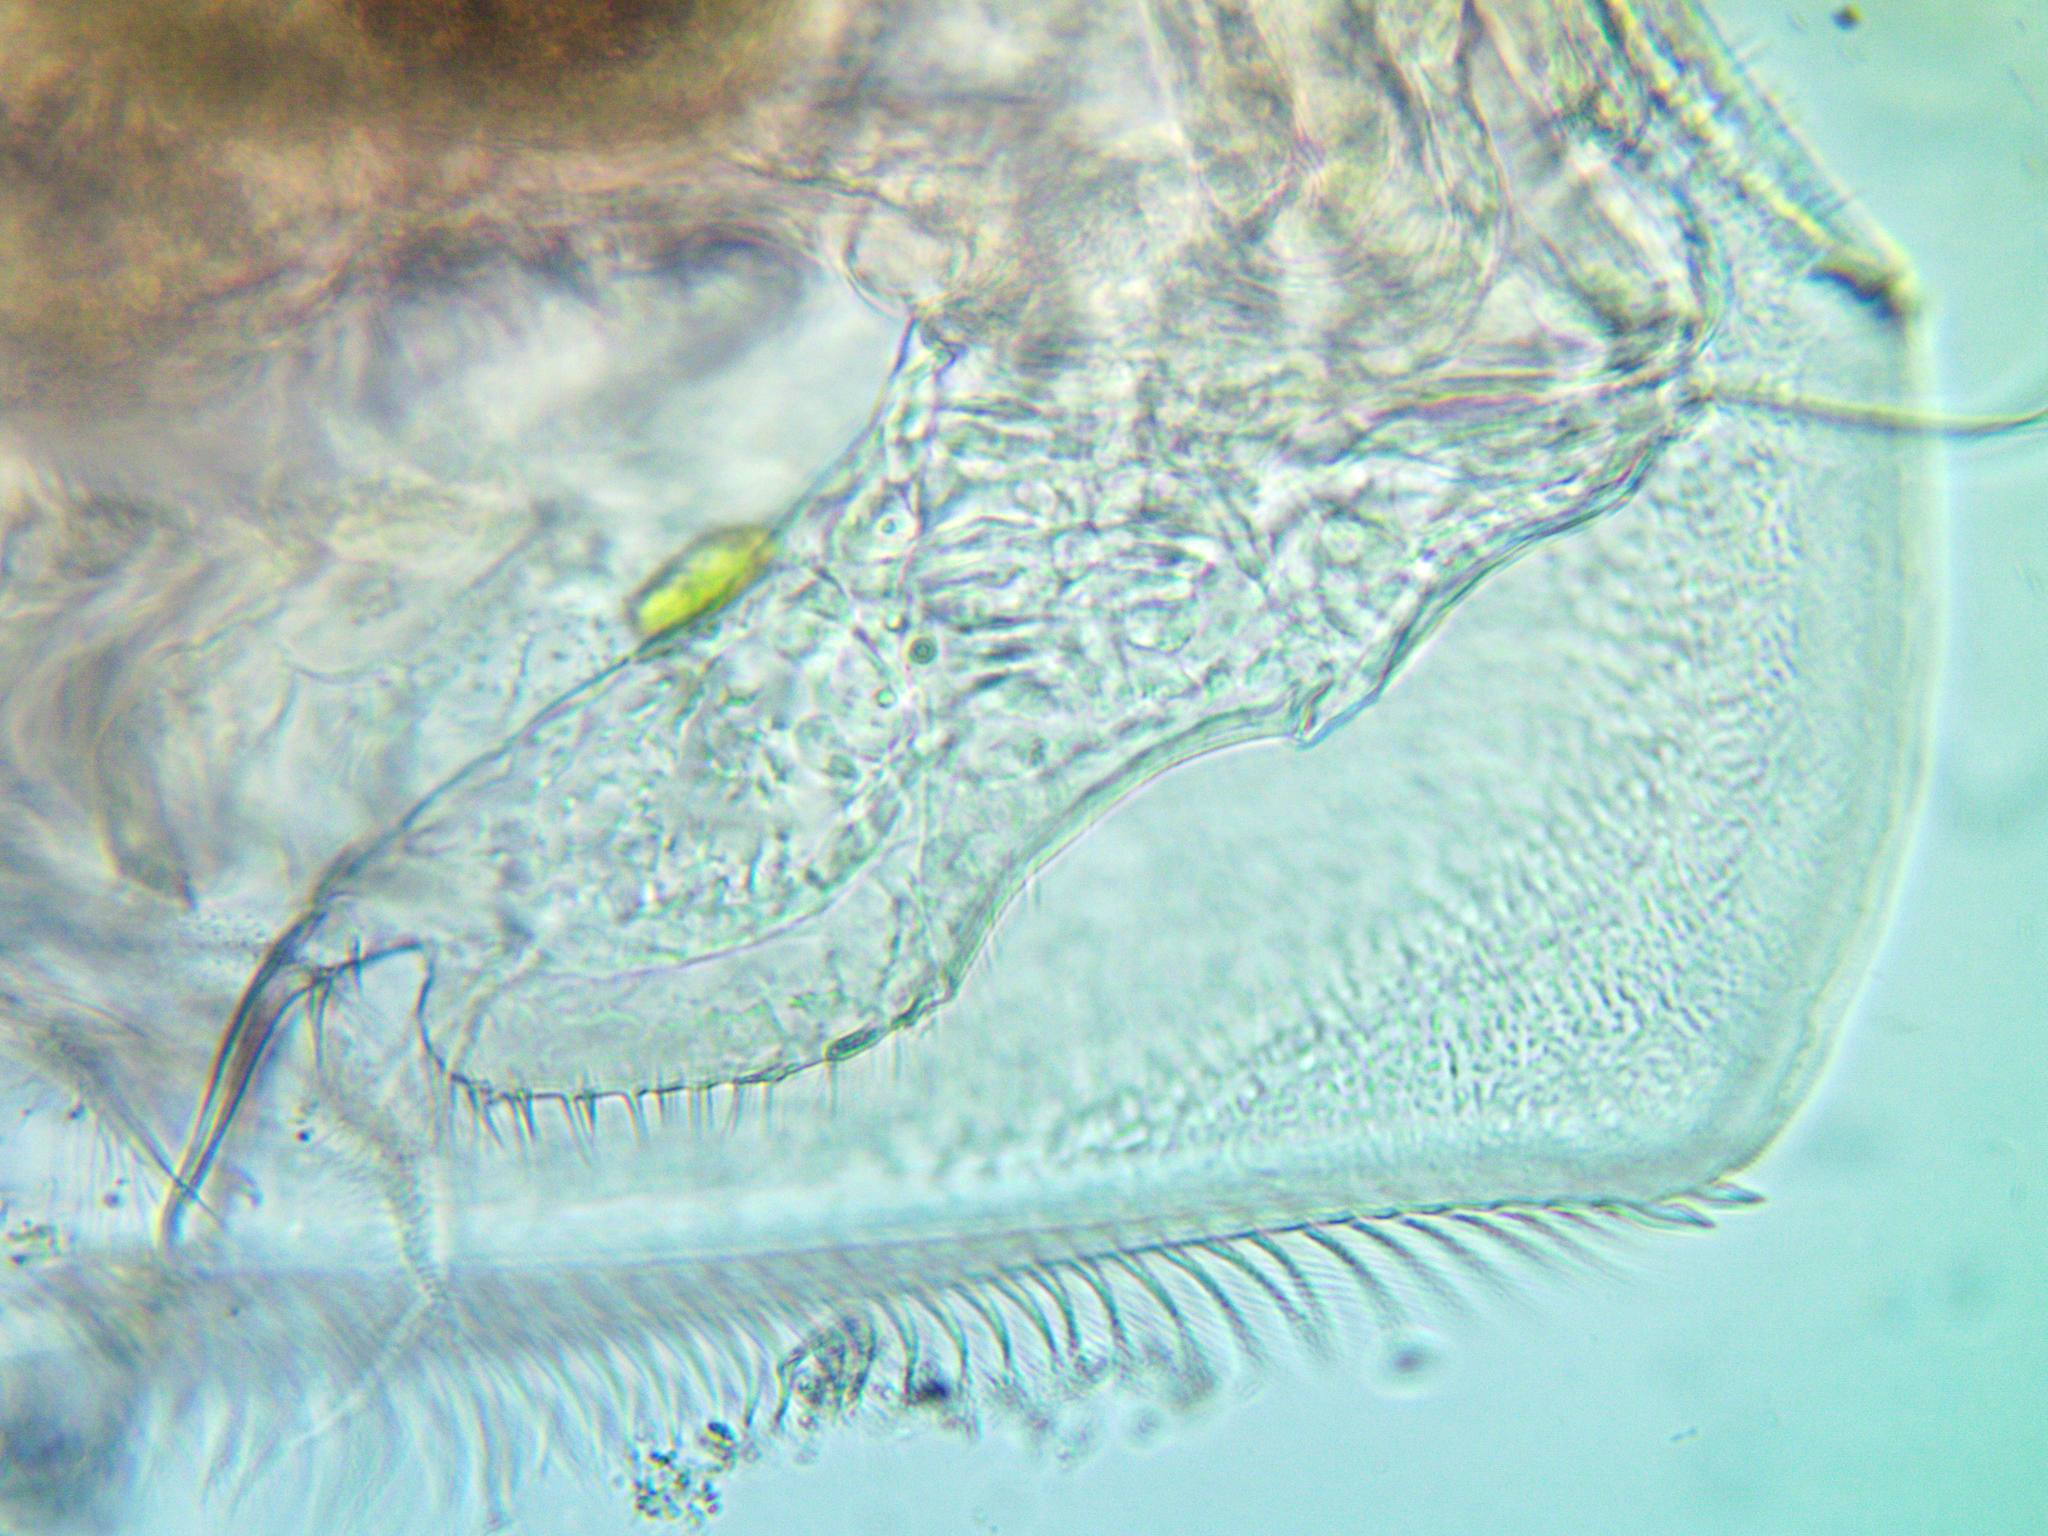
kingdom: Animalia
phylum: Arthropoda
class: Branchiopoda
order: Diplostraca
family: Chydoridae
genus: Pleuroxus
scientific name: Pleuroxus aduncus
